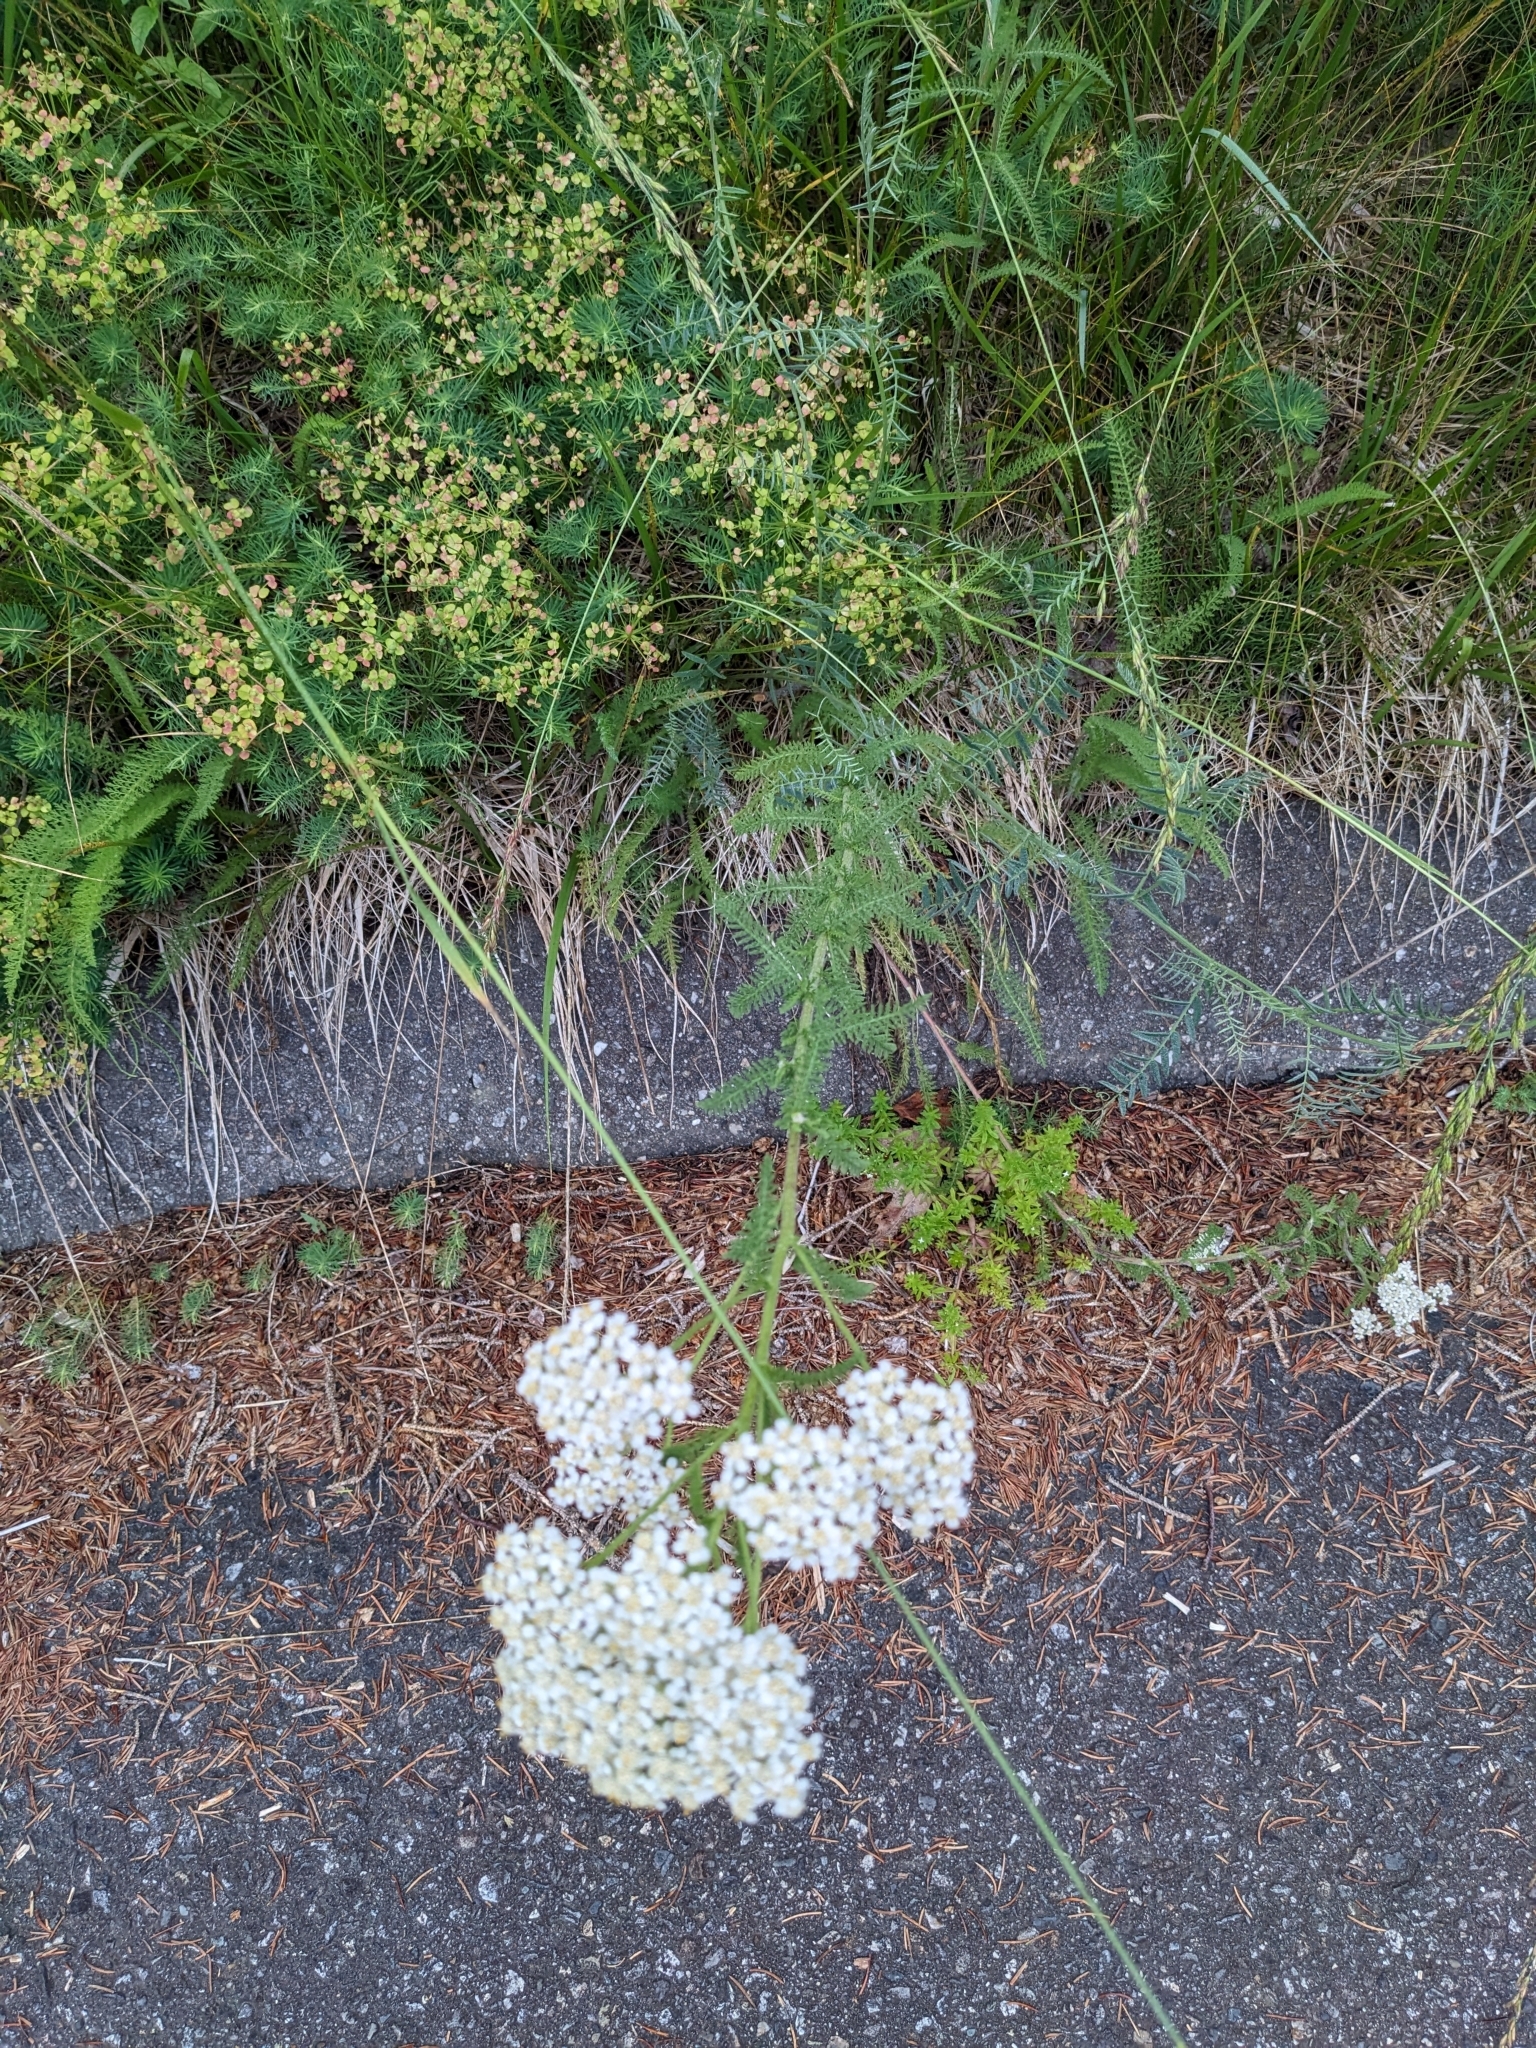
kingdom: Plantae
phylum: Tracheophyta
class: Magnoliopsida
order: Asterales
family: Asteraceae
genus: Achillea
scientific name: Achillea millefolium
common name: Yarrow
